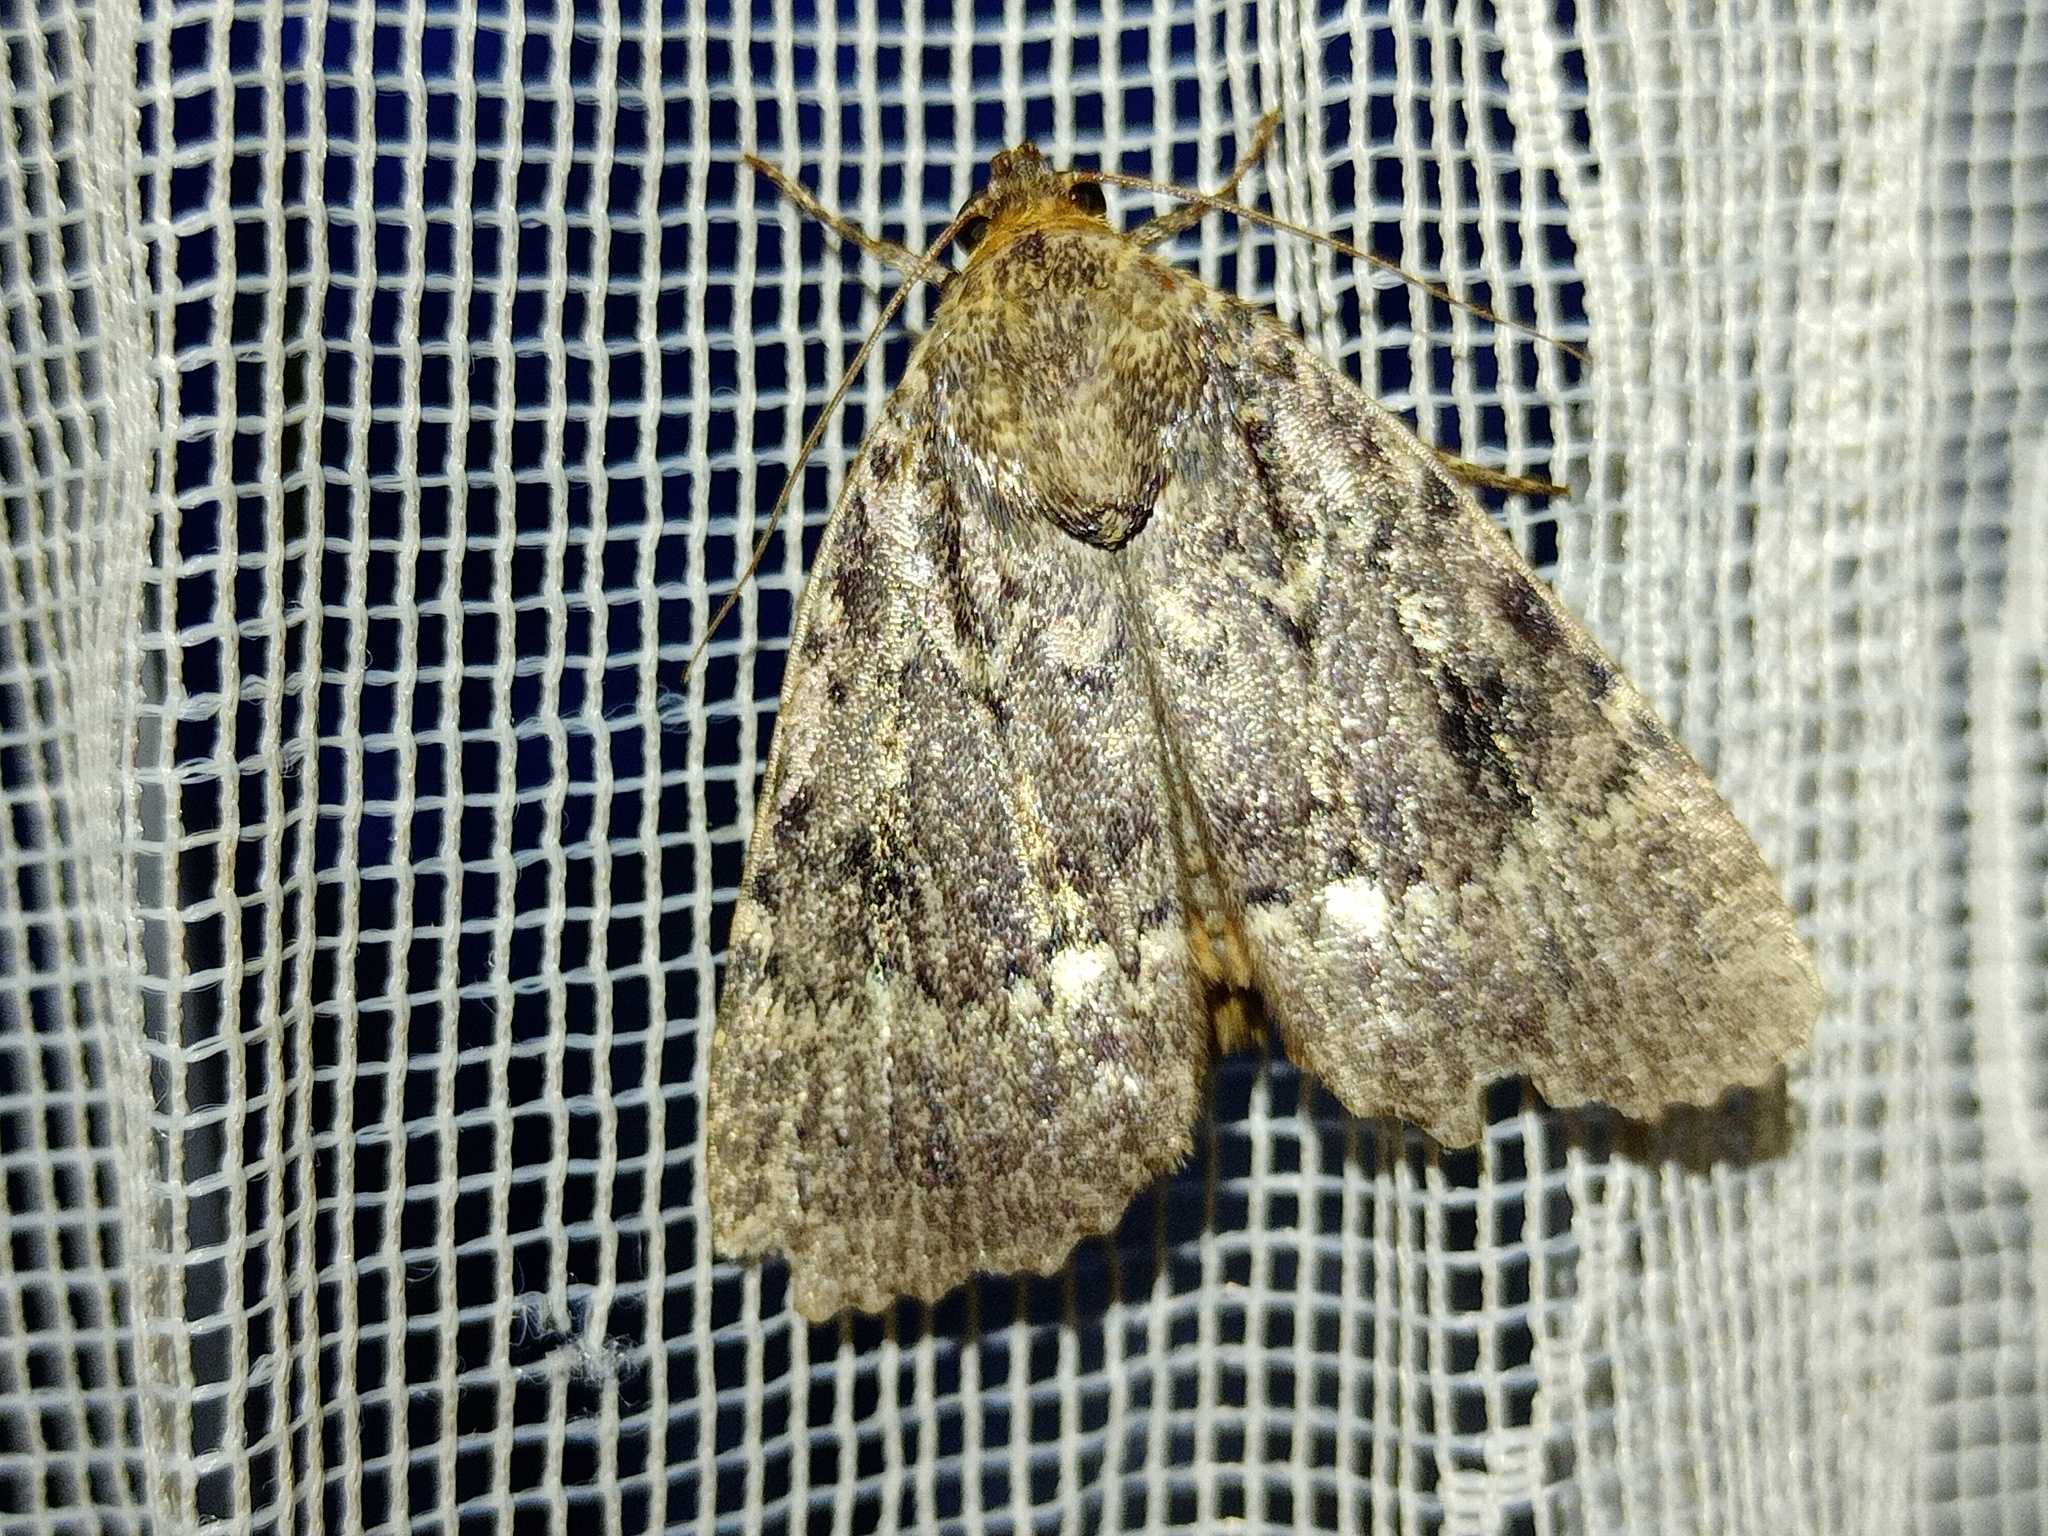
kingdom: Animalia
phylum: Arthropoda
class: Insecta
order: Lepidoptera
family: Noctuidae
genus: Amphipyra
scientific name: Amphipyra pyramidea
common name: Copper underwing
